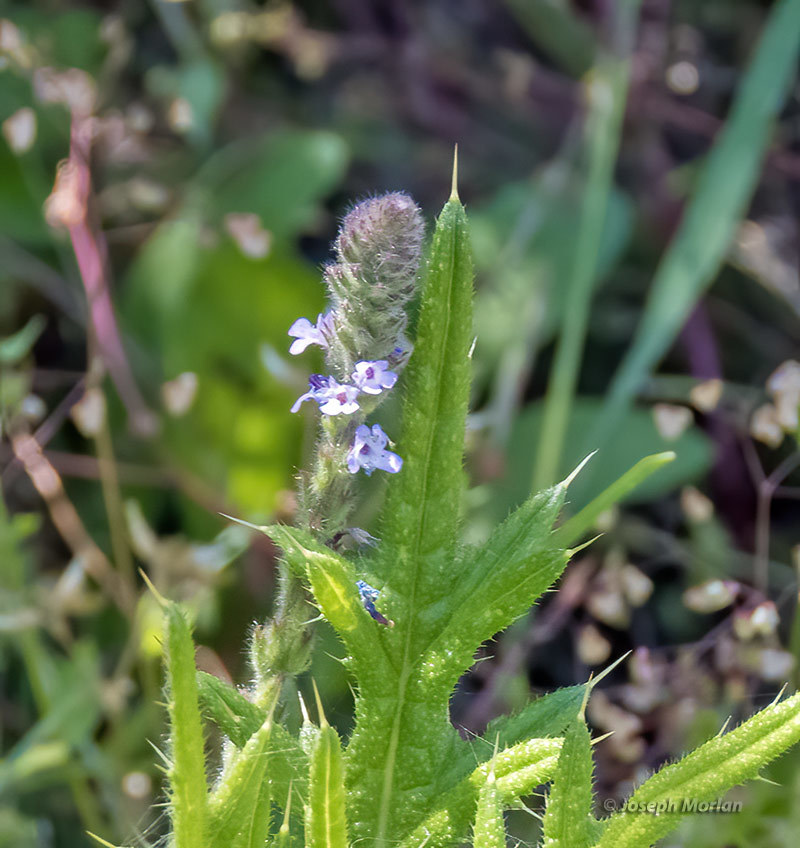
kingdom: Plantae
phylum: Tracheophyta
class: Magnoliopsida
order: Lamiales
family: Verbenaceae
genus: Verbena
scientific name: Verbena lasiostachys
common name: Vervain
